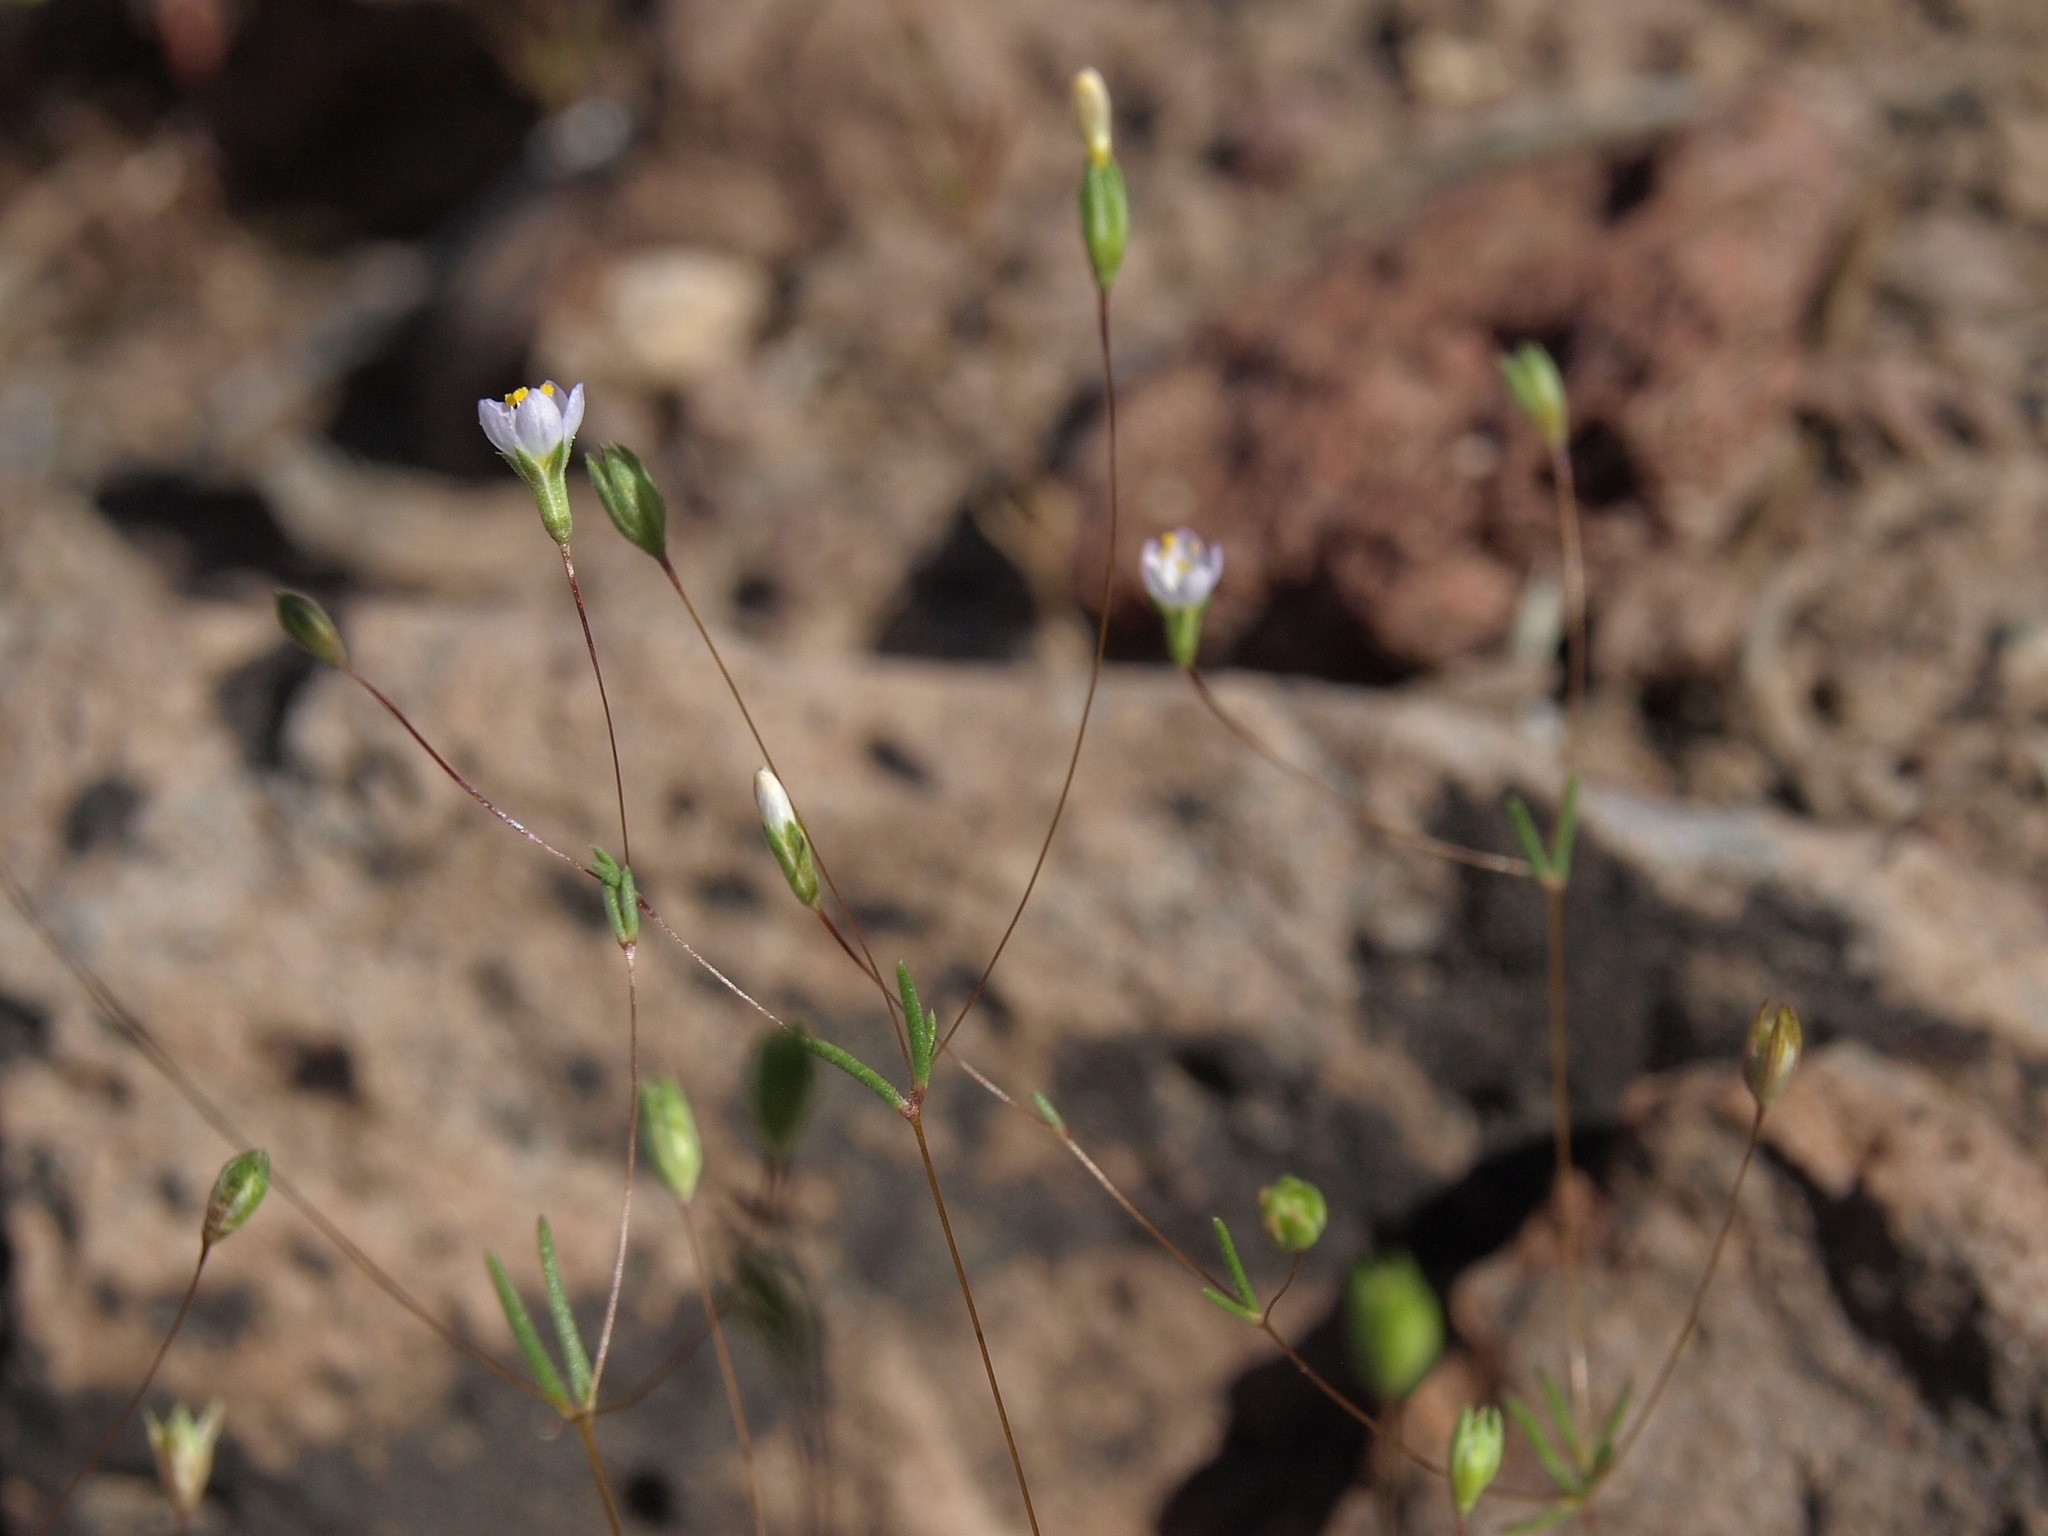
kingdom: Plantae
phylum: Tracheophyta
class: Magnoliopsida
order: Ericales
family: Polemoniaceae
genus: Leptosiphon
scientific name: Leptosiphon septentrionalis
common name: Northern linanthus
